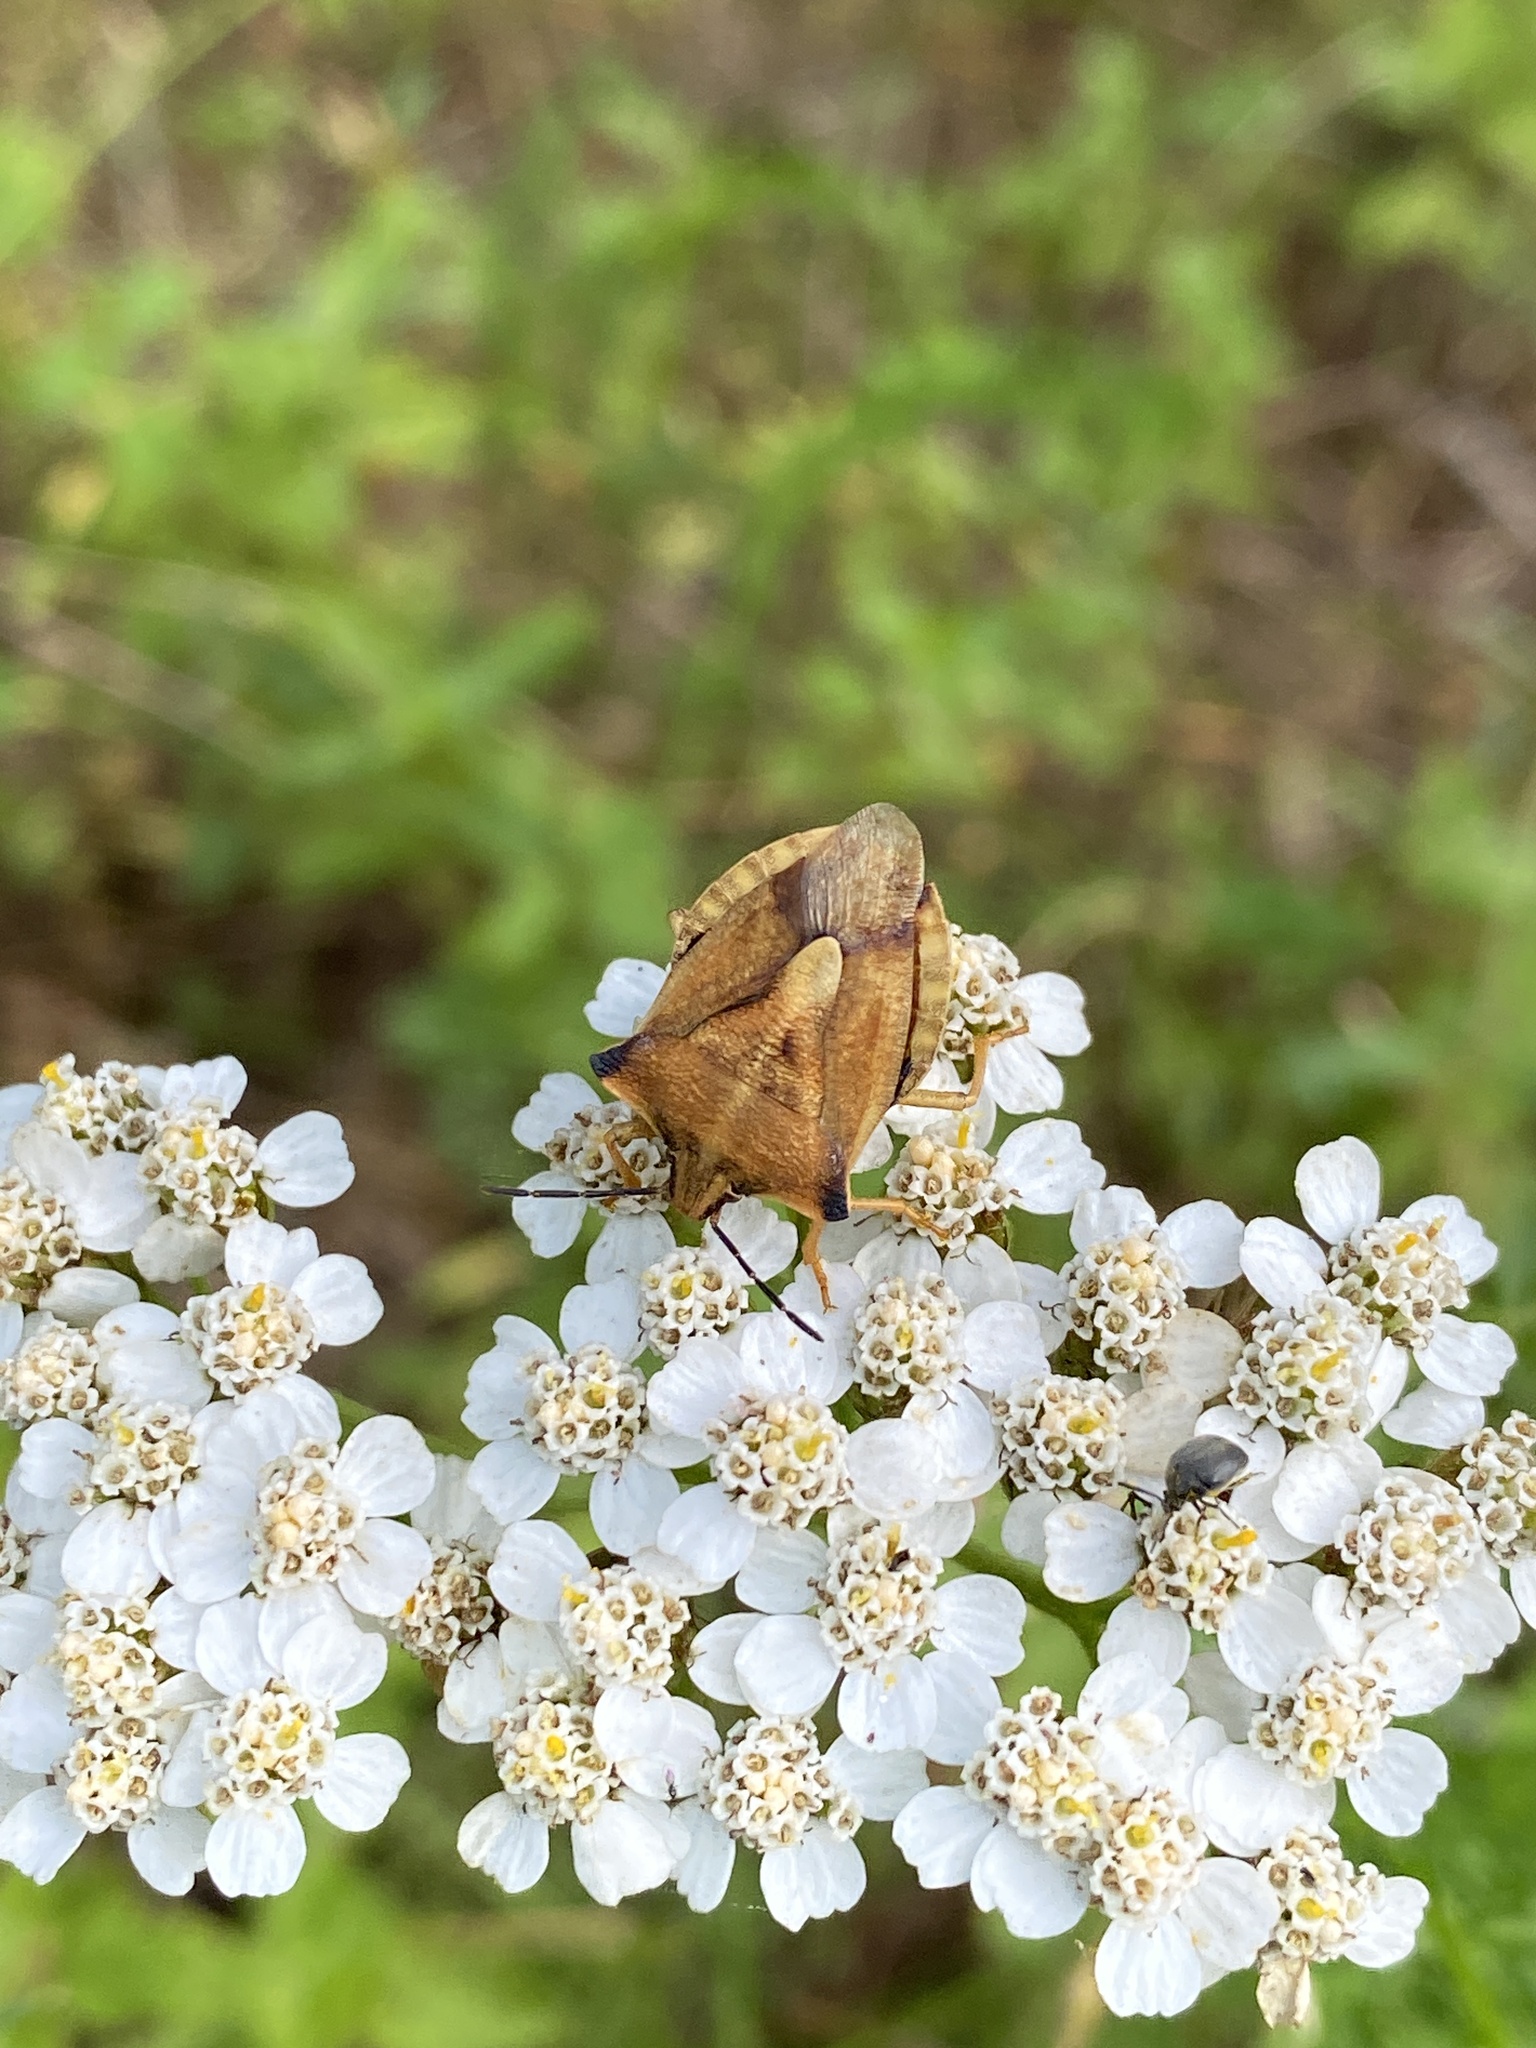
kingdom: Animalia
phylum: Arthropoda
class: Insecta
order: Hemiptera
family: Pentatomidae
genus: Carpocoris
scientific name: Carpocoris fuscispinus
